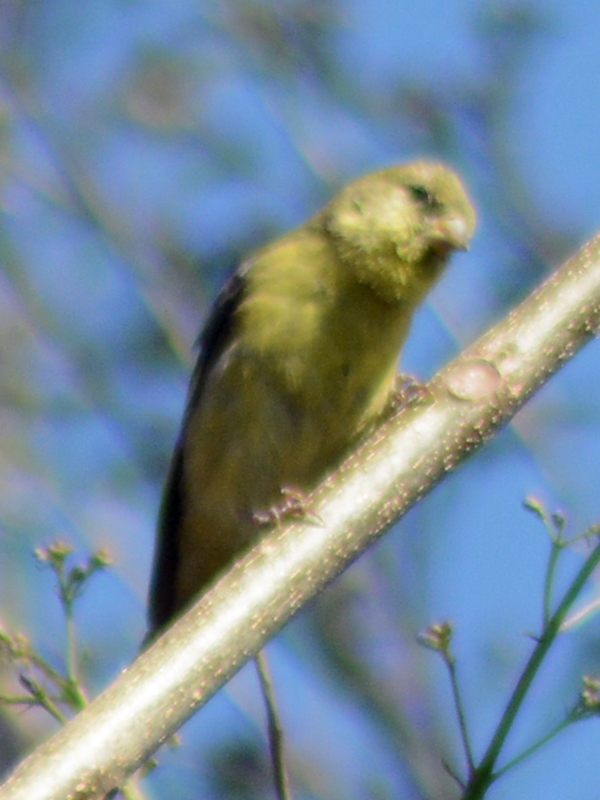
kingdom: Animalia
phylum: Chordata
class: Aves
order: Passeriformes
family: Fringillidae
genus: Spinus
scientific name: Spinus psaltria
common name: Lesser goldfinch
